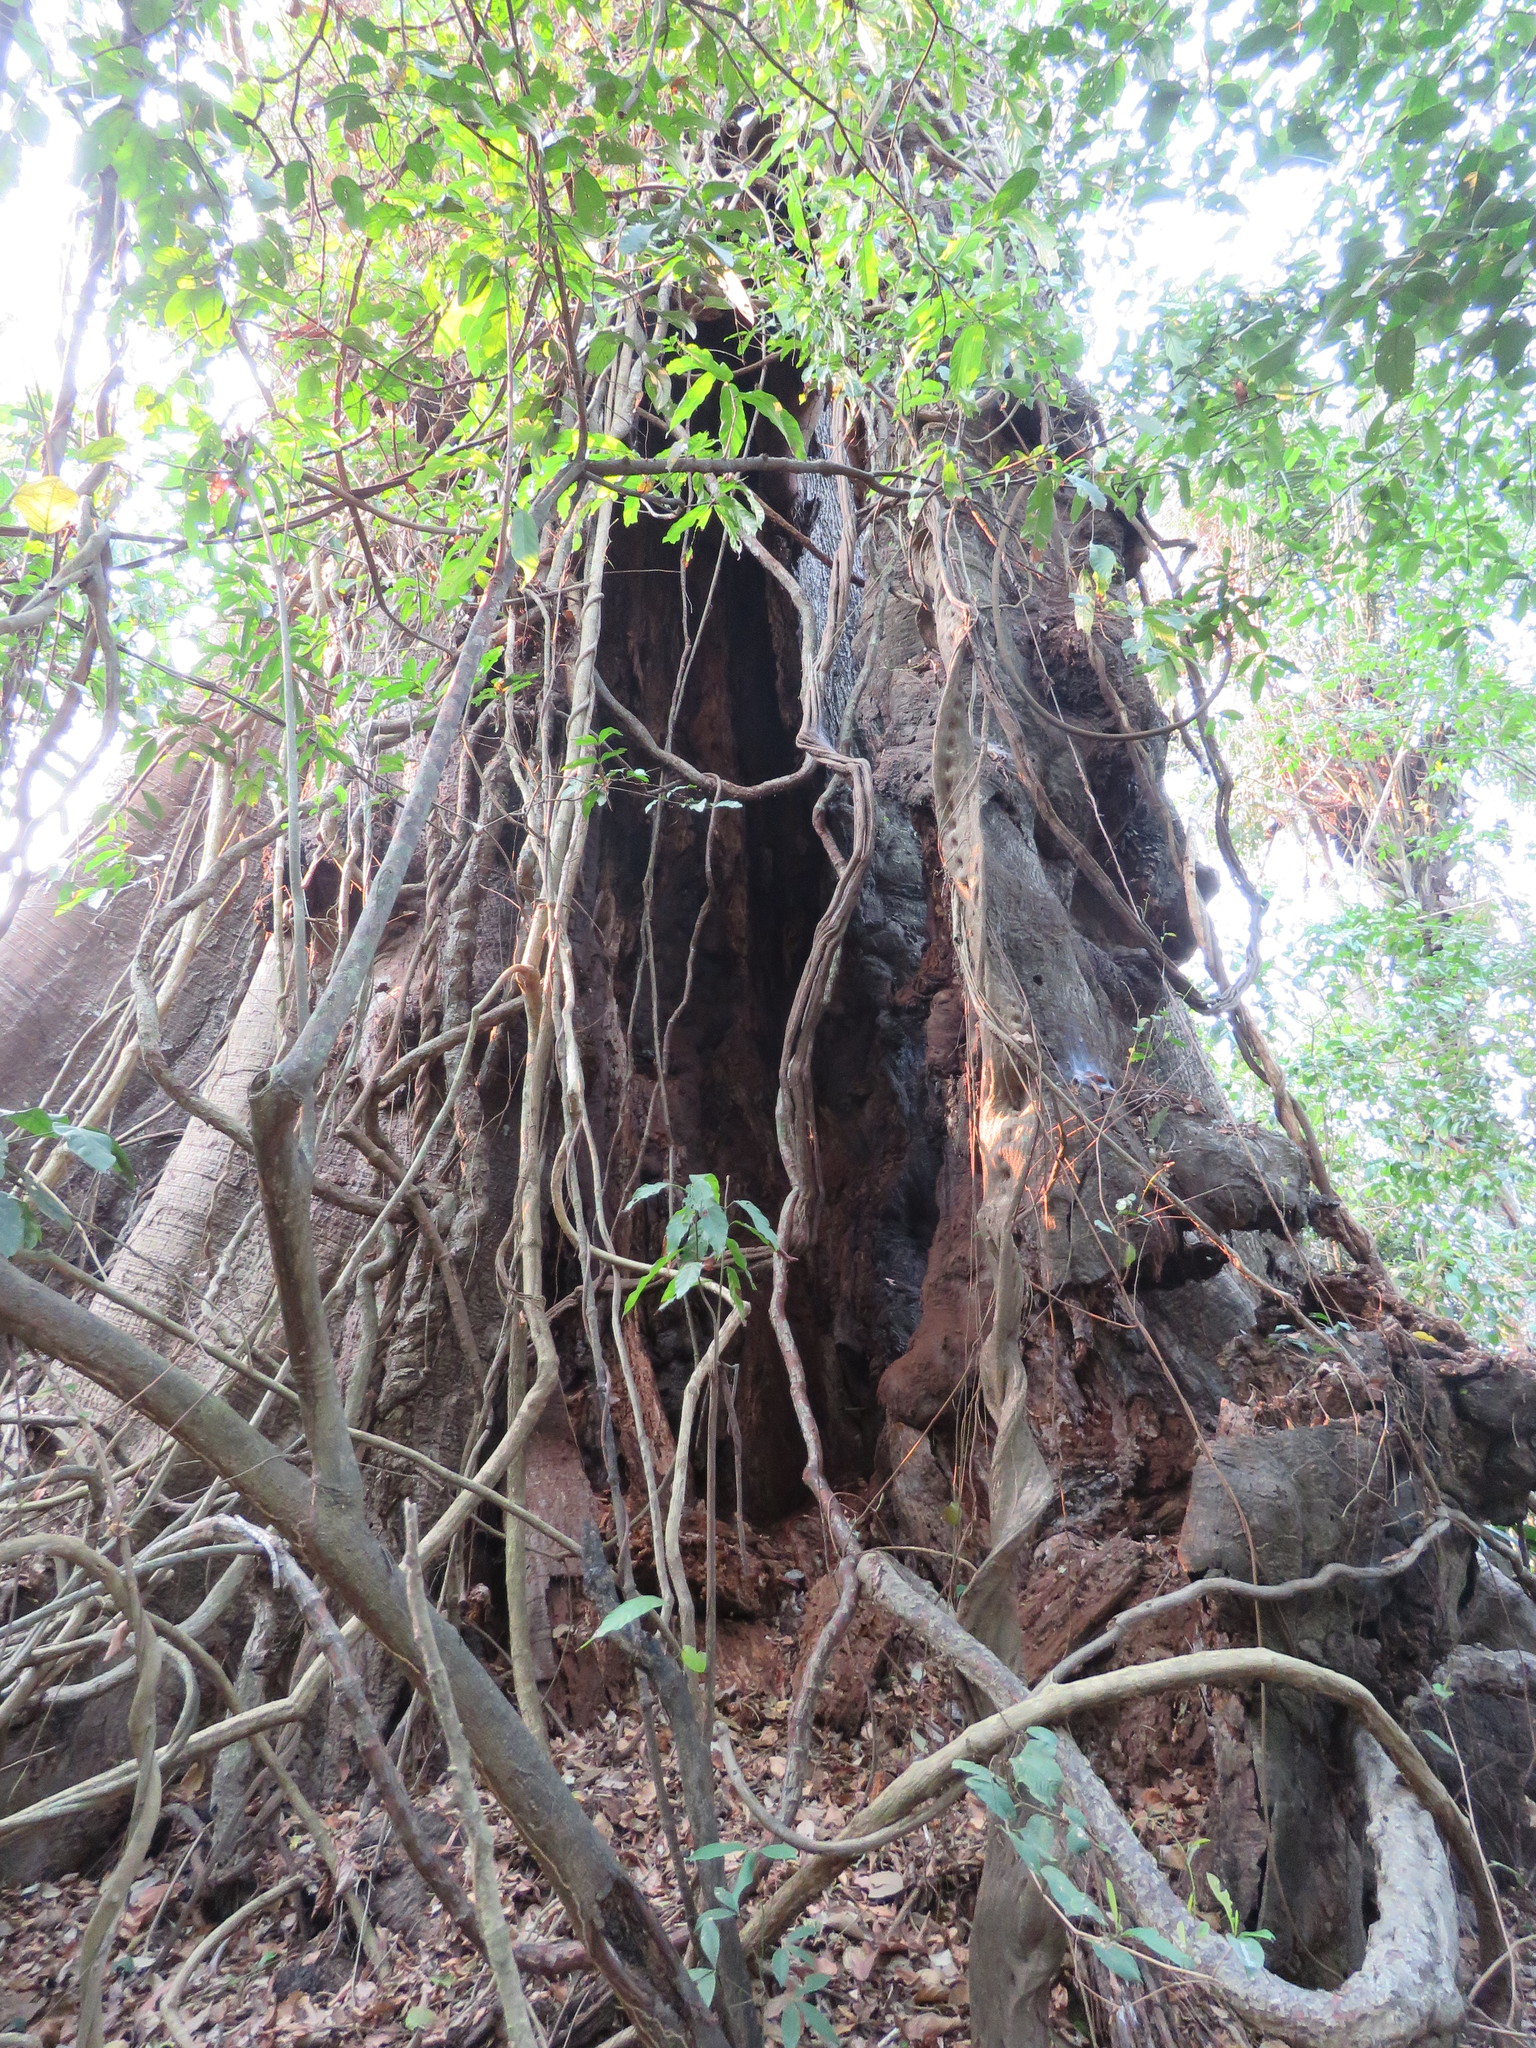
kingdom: Animalia
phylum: Chordata
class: Mammalia
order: Chiroptera
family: Phyllostomidae
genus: Chrotopterus
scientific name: Chrotopterus auritus
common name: Woolly false vampire bat
